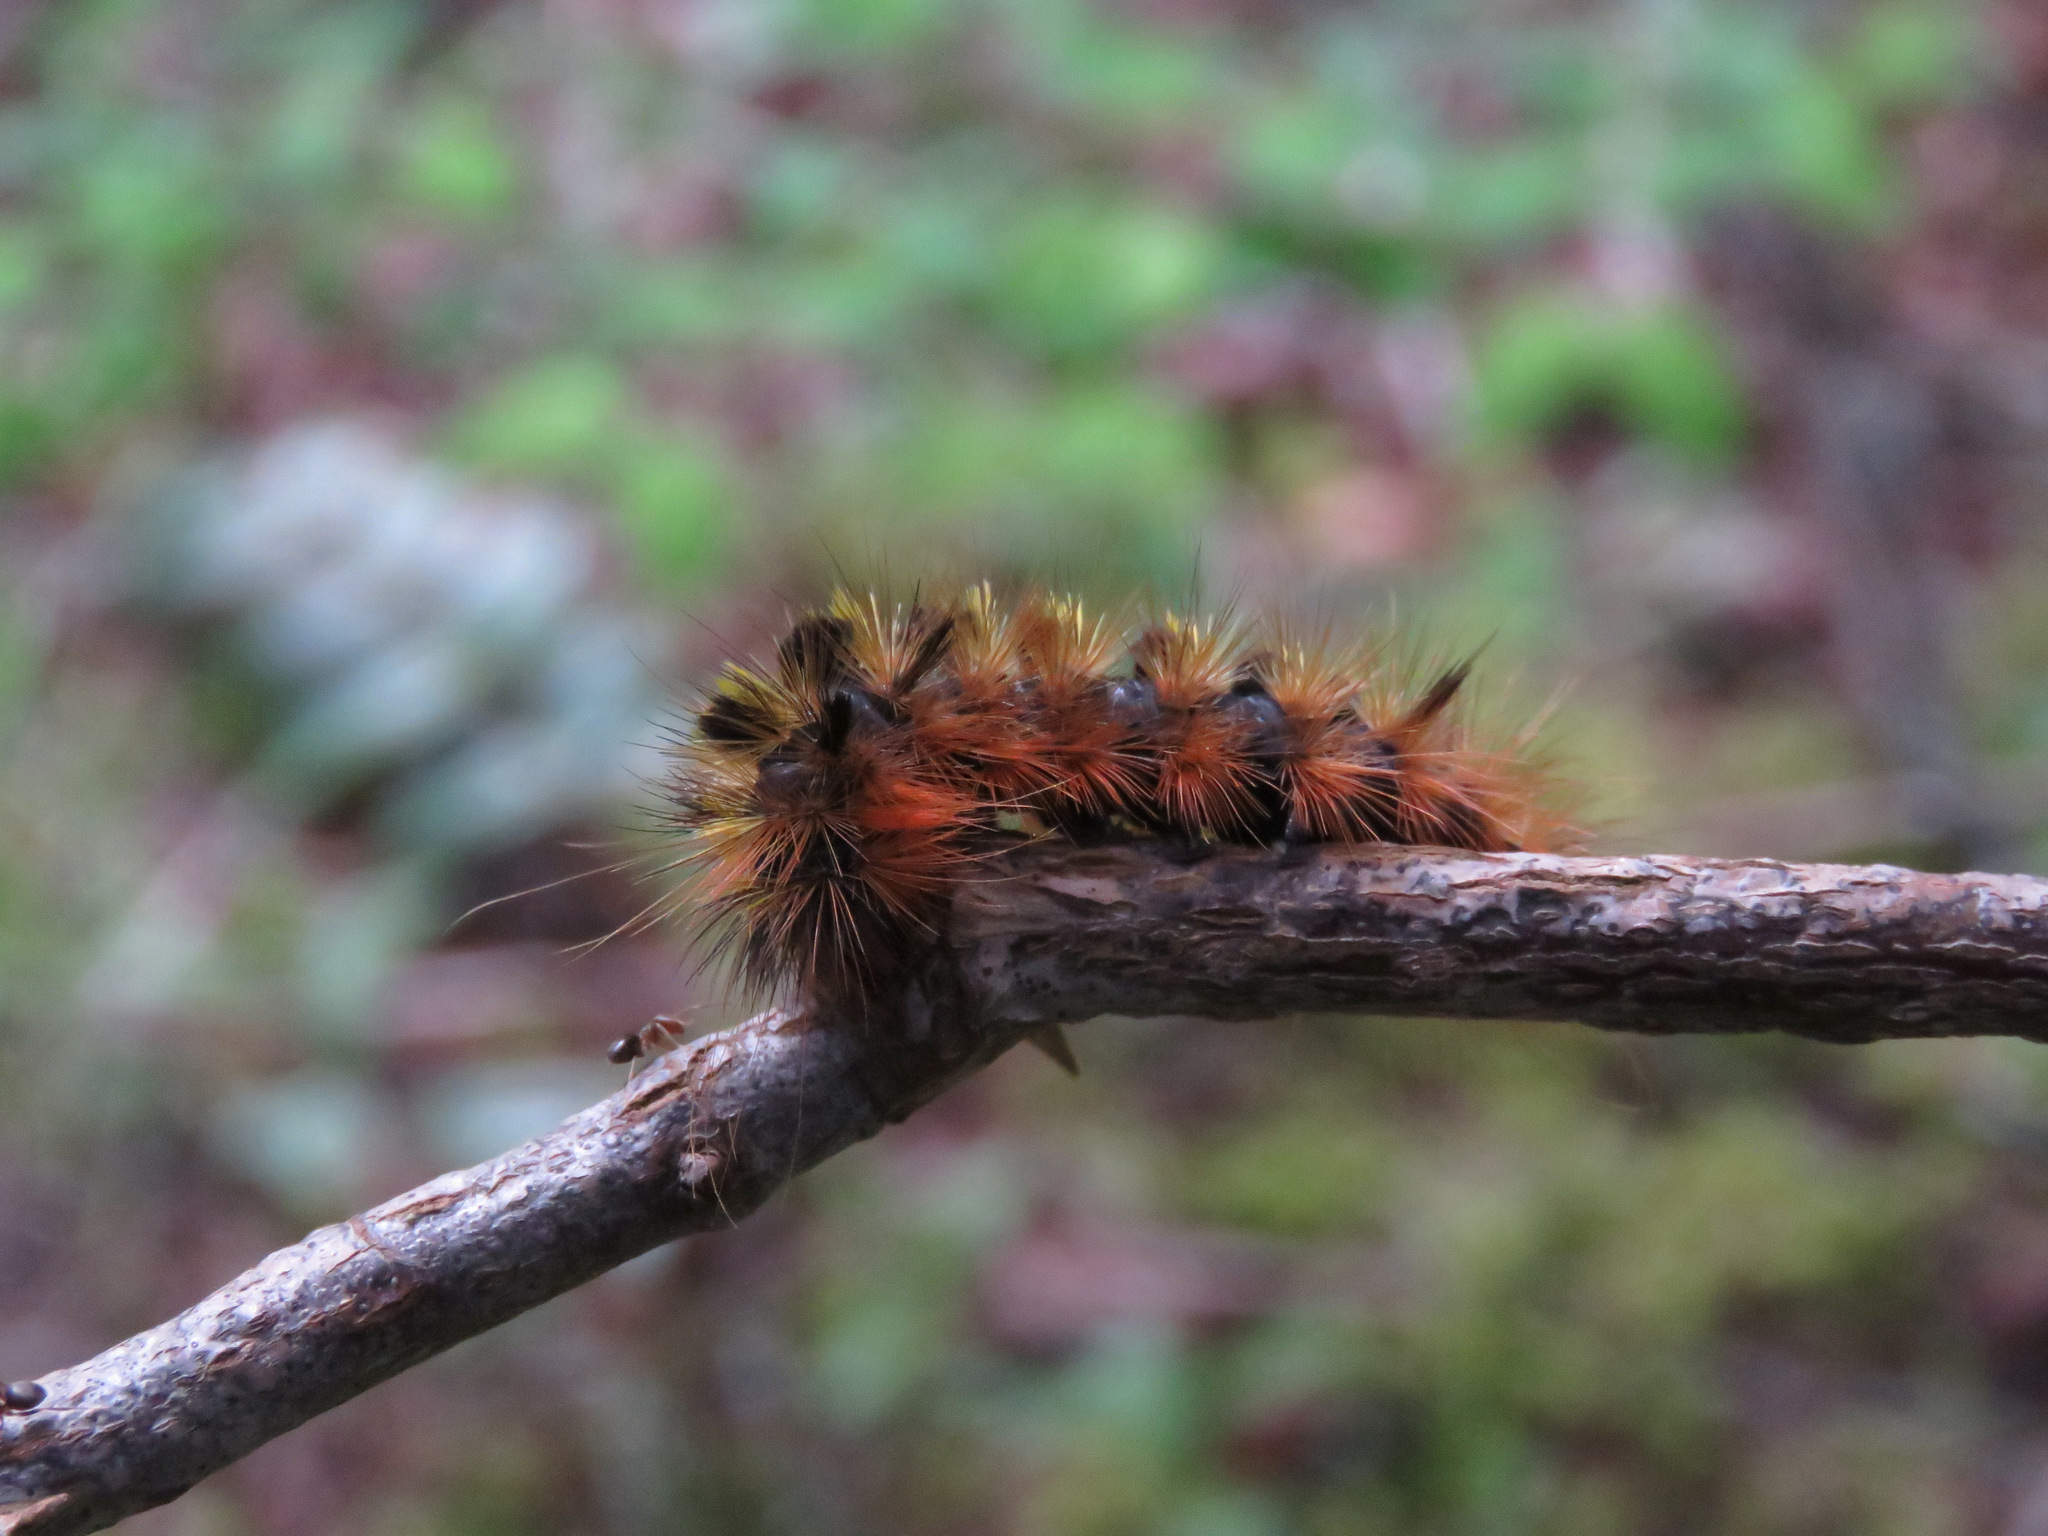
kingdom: Animalia
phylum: Arthropoda
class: Insecta
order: Lepidoptera
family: Erebidae
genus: Lophocampa
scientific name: Lophocampa argentata
